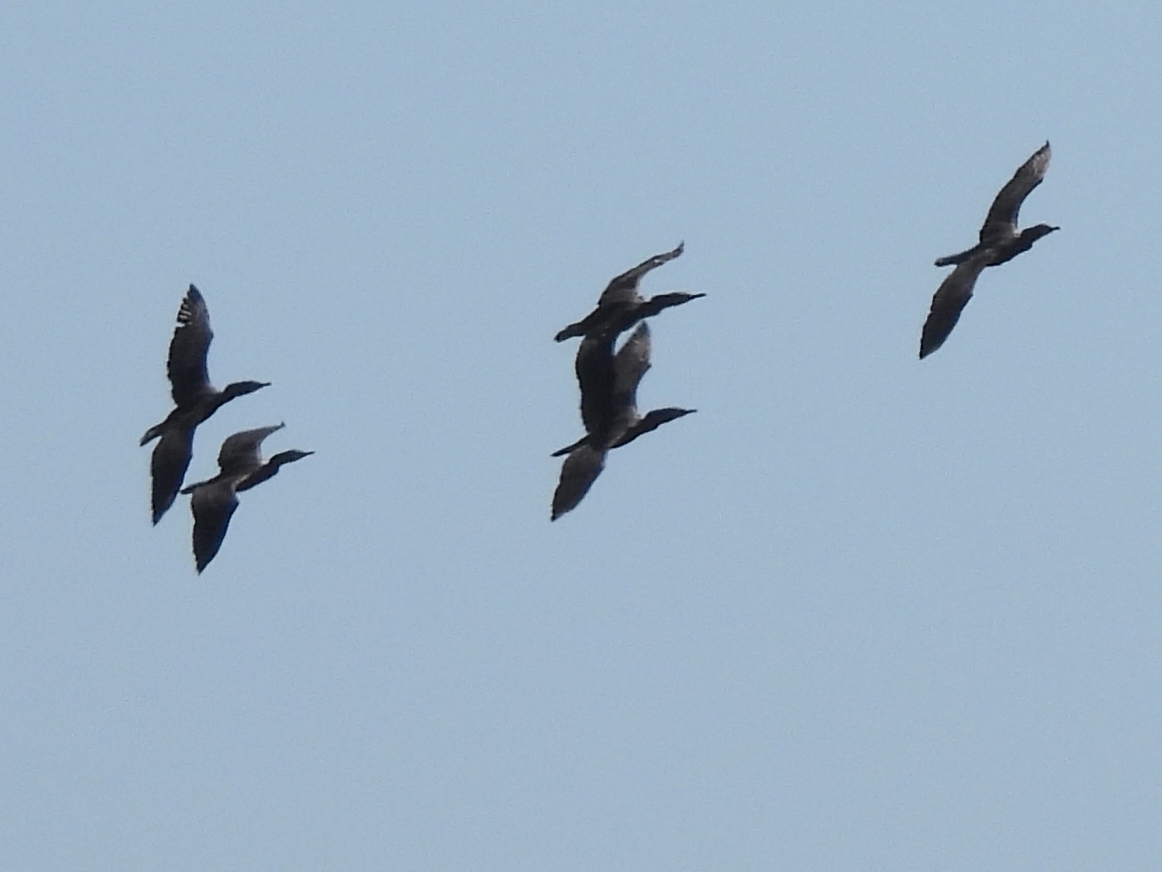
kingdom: Animalia
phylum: Chordata
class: Aves
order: Suliformes
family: Phalacrocoracidae
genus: Phalacrocorax
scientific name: Phalacrocorax auritus
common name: Double-crested cormorant
